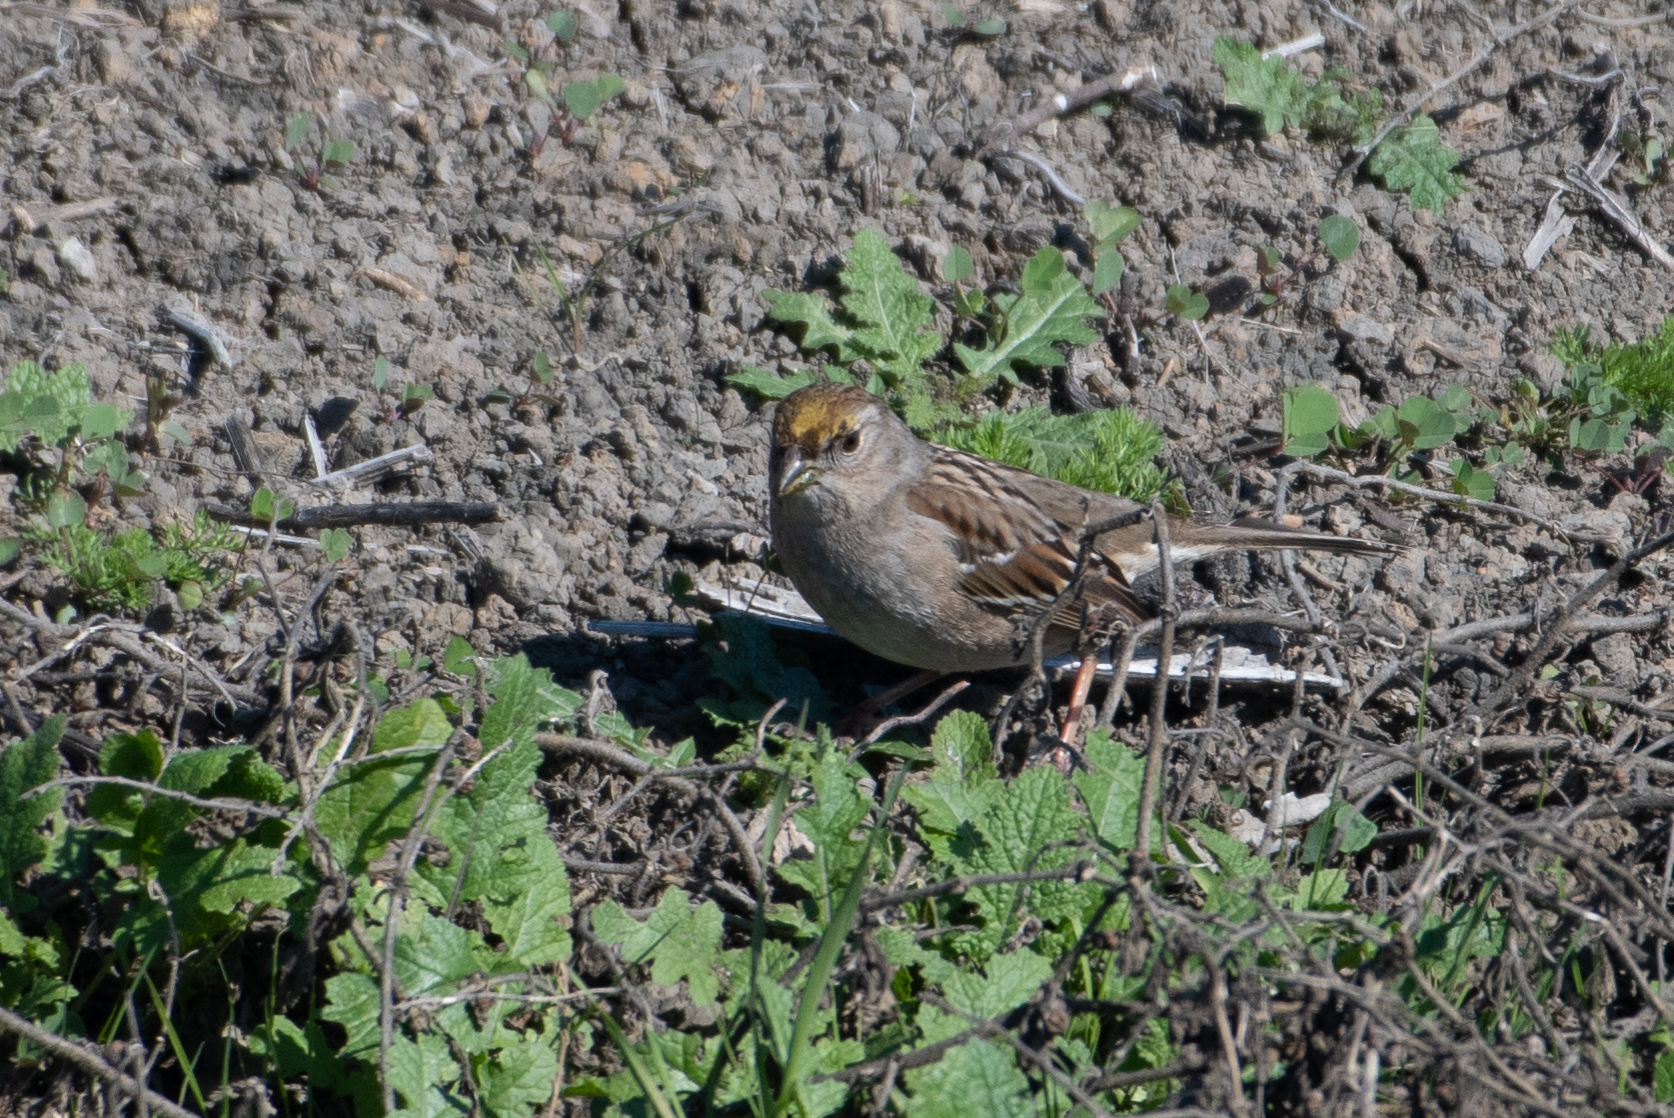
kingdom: Animalia
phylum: Chordata
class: Aves
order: Passeriformes
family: Passerellidae
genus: Zonotrichia
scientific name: Zonotrichia atricapilla
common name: Golden-crowned sparrow
